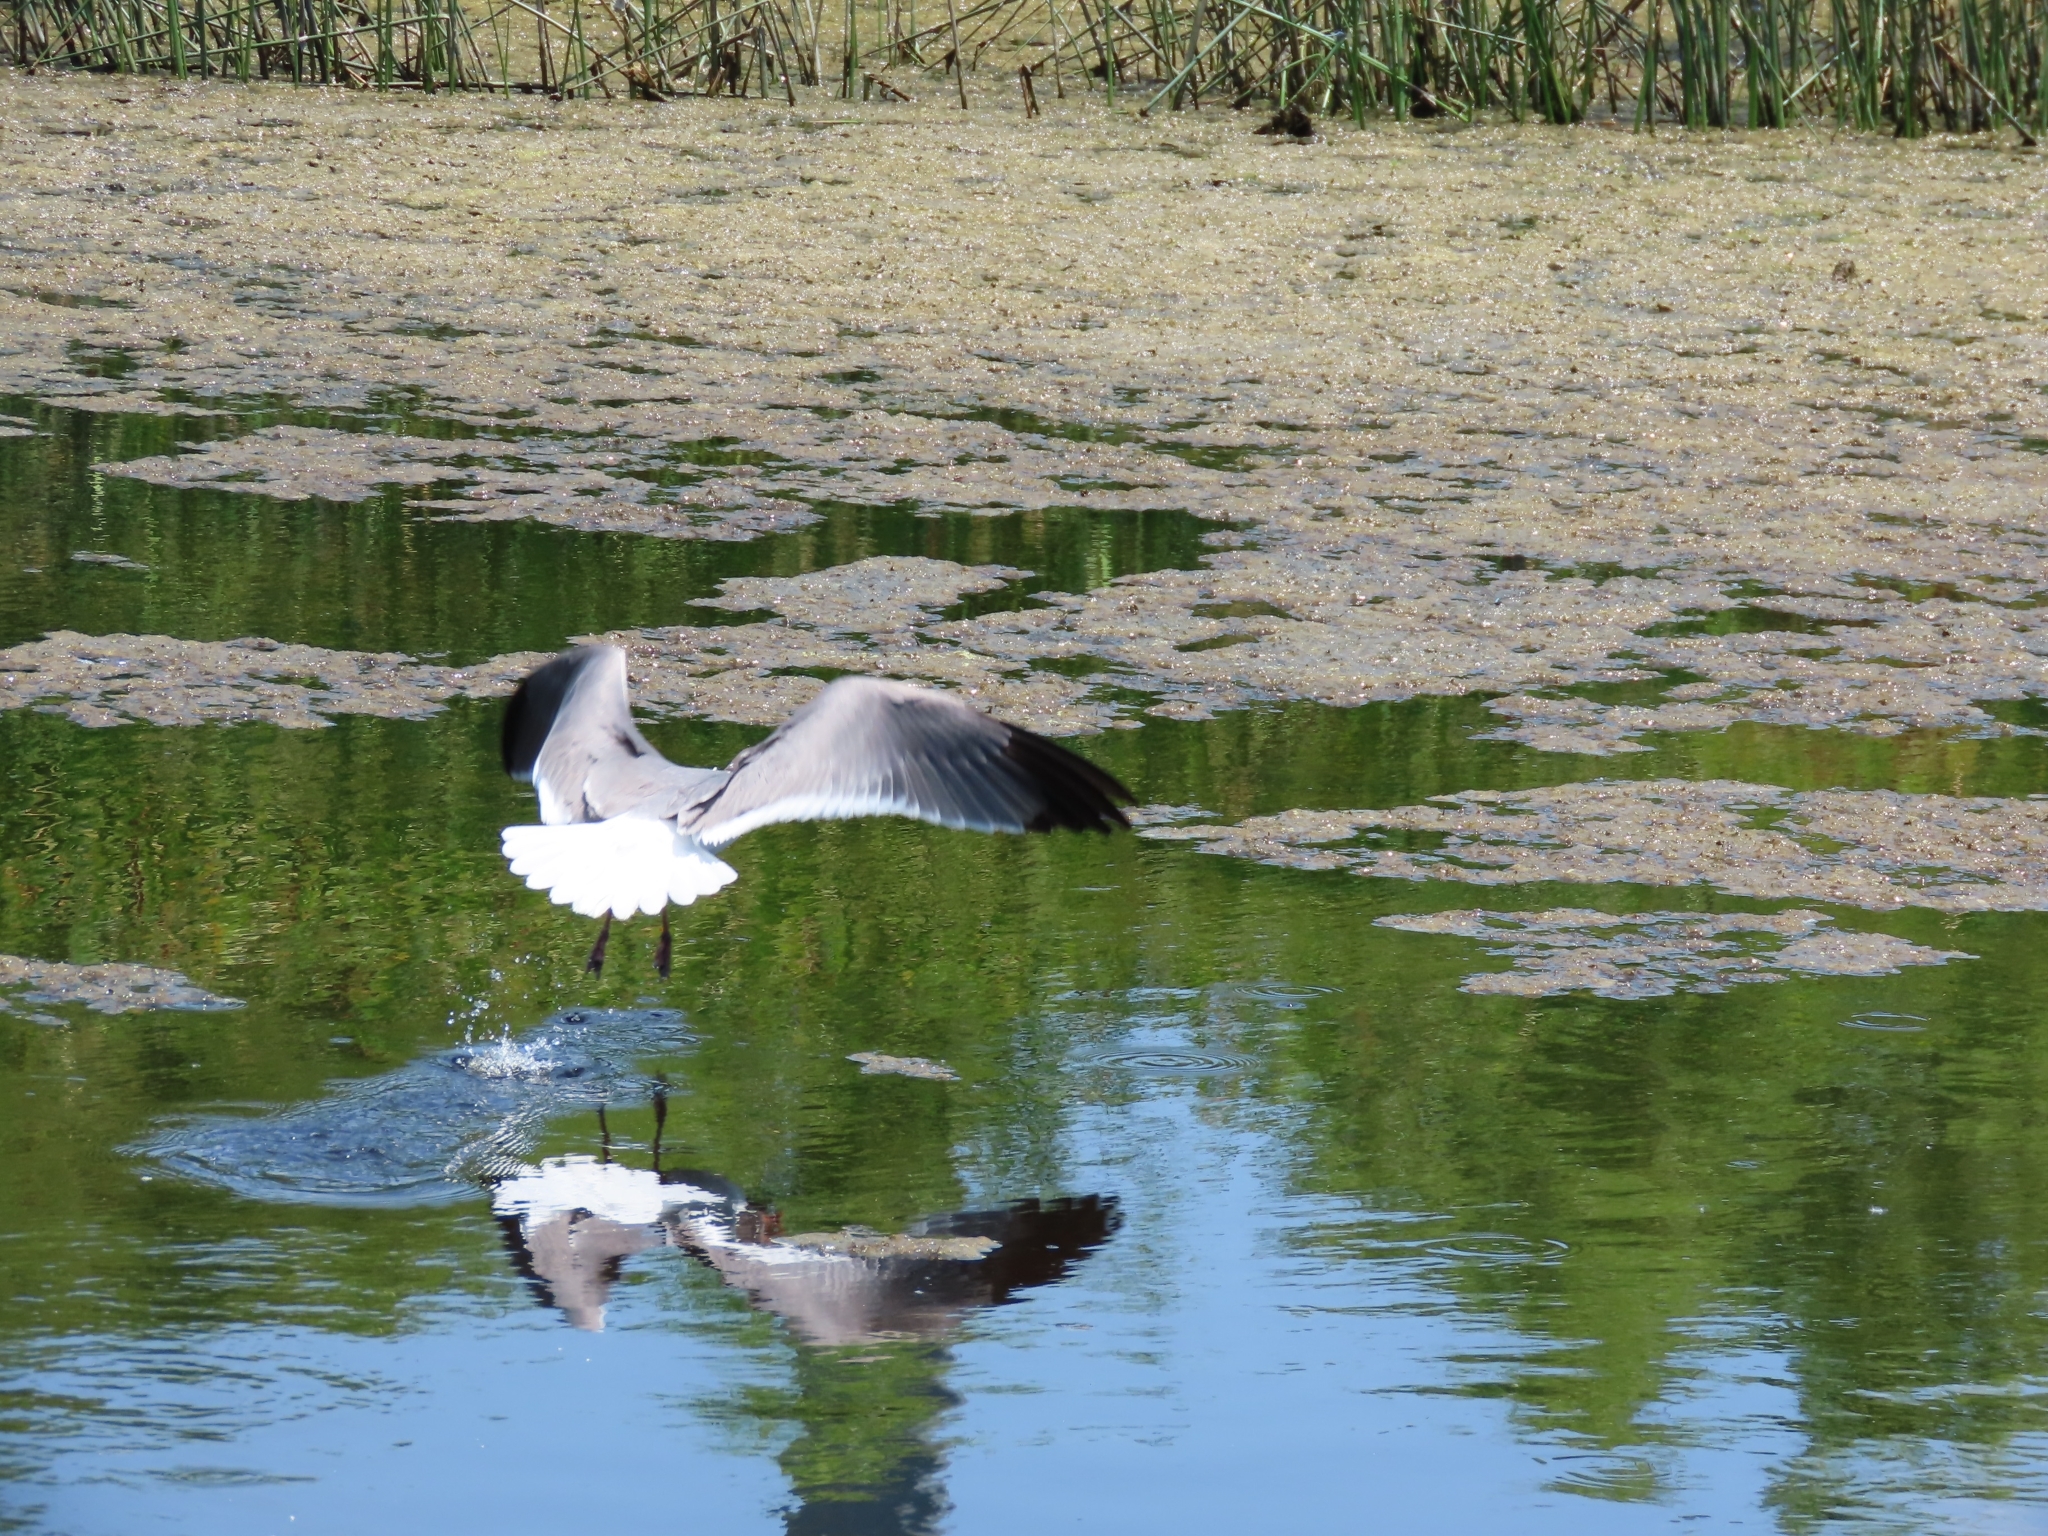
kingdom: Animalia
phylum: Chordata
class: Aves
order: Charadriiformes
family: Laridae
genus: Leucophaeus
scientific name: Leucophaeus atricilla
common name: Laughing gull
